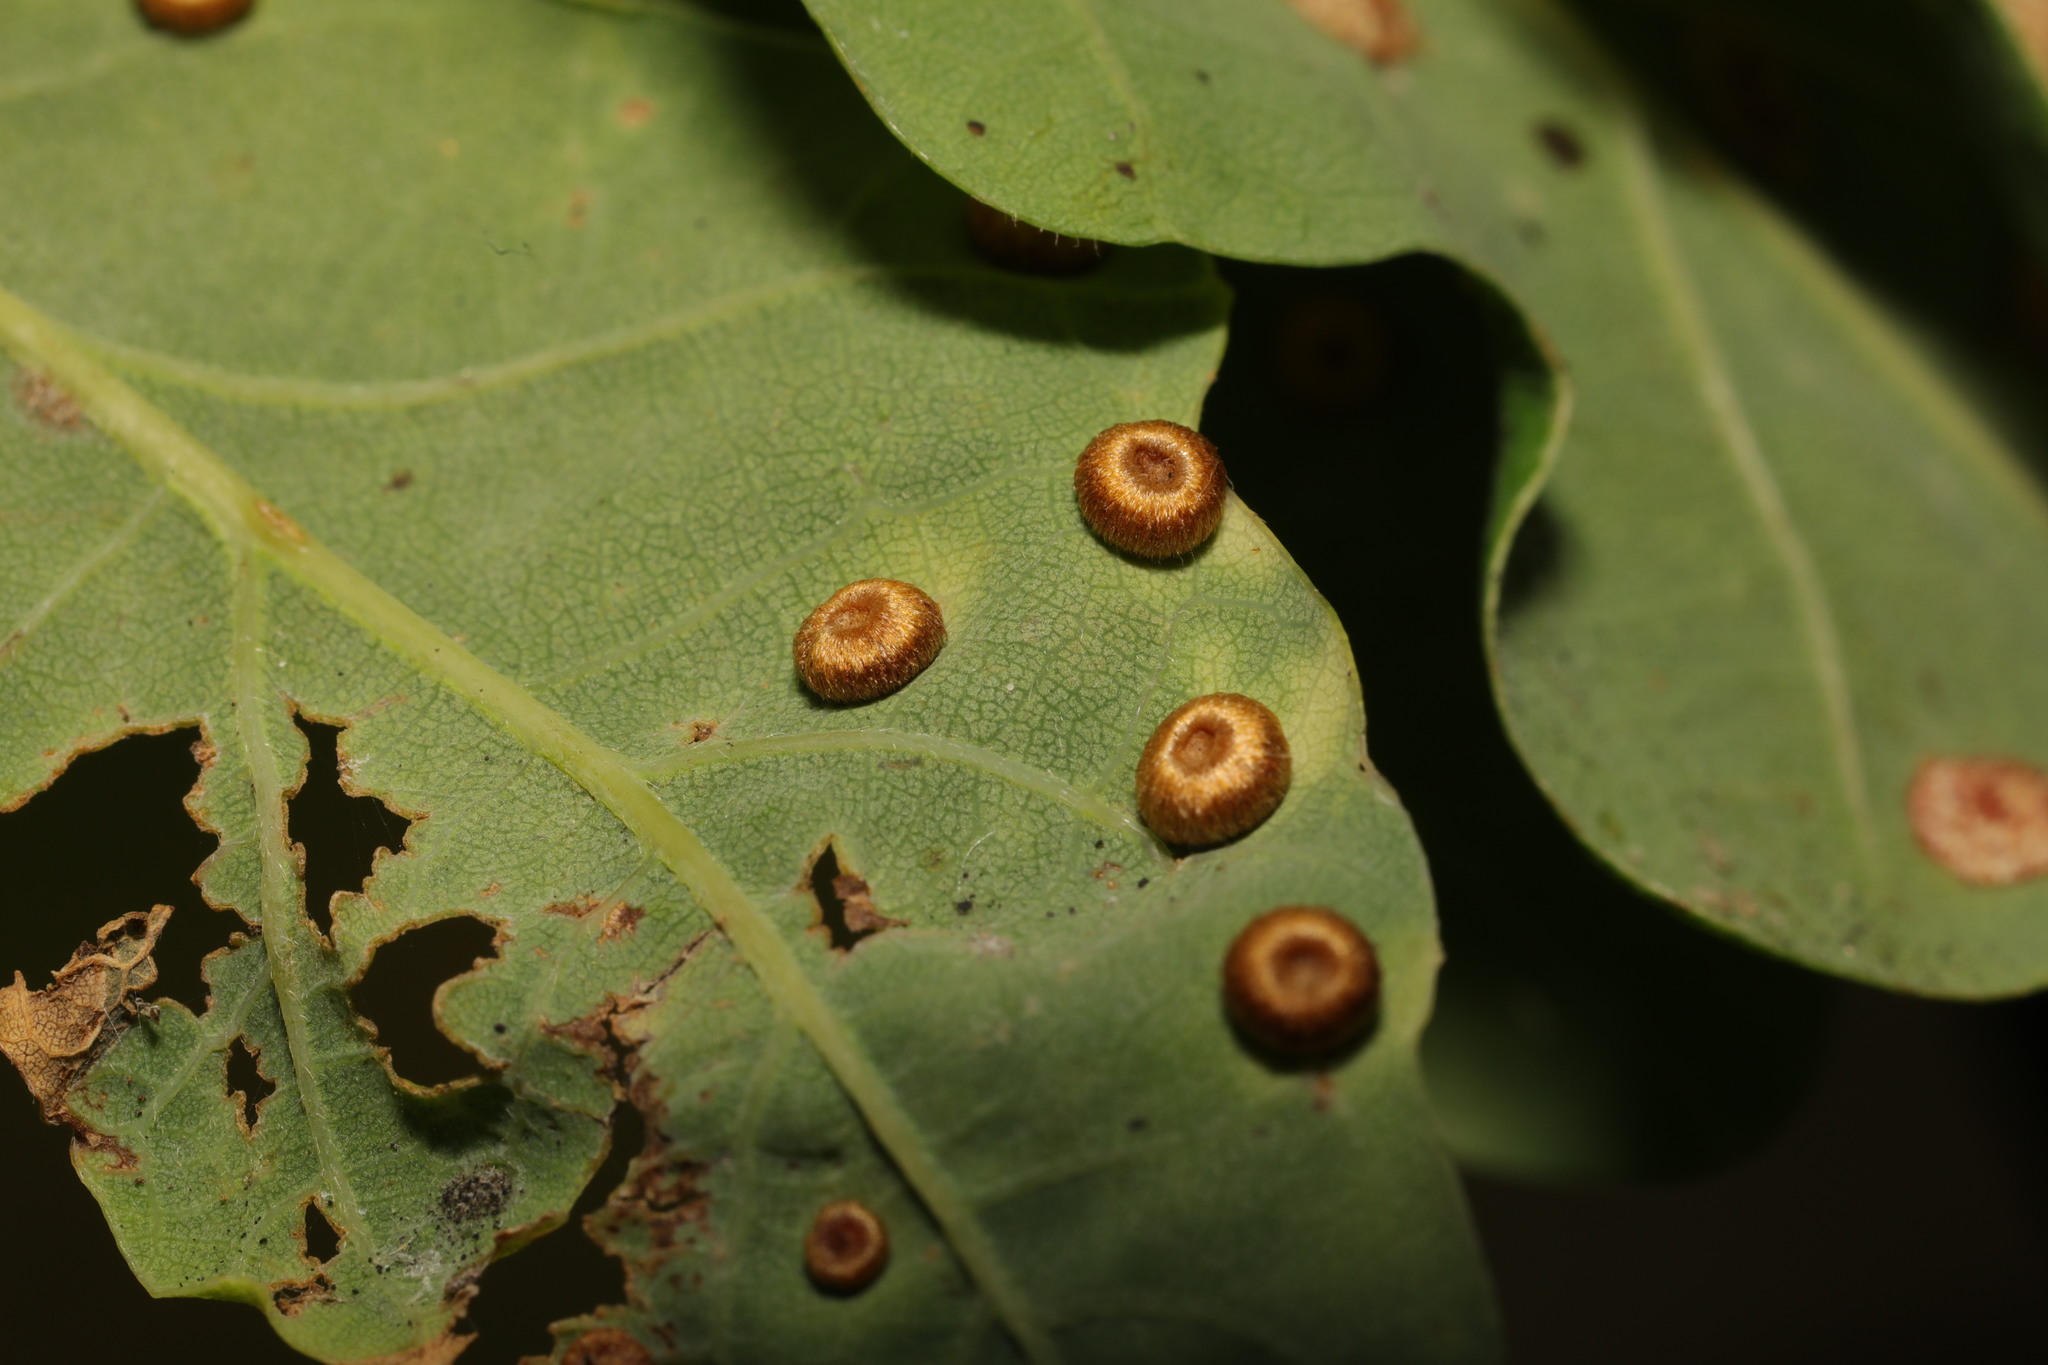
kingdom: Animalia
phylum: Arthropoda
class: Insecta
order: Hymenoptera
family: Cynipidae
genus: Neuroterus
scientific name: Neuroterus numismalis
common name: Silk-button spangle gall
